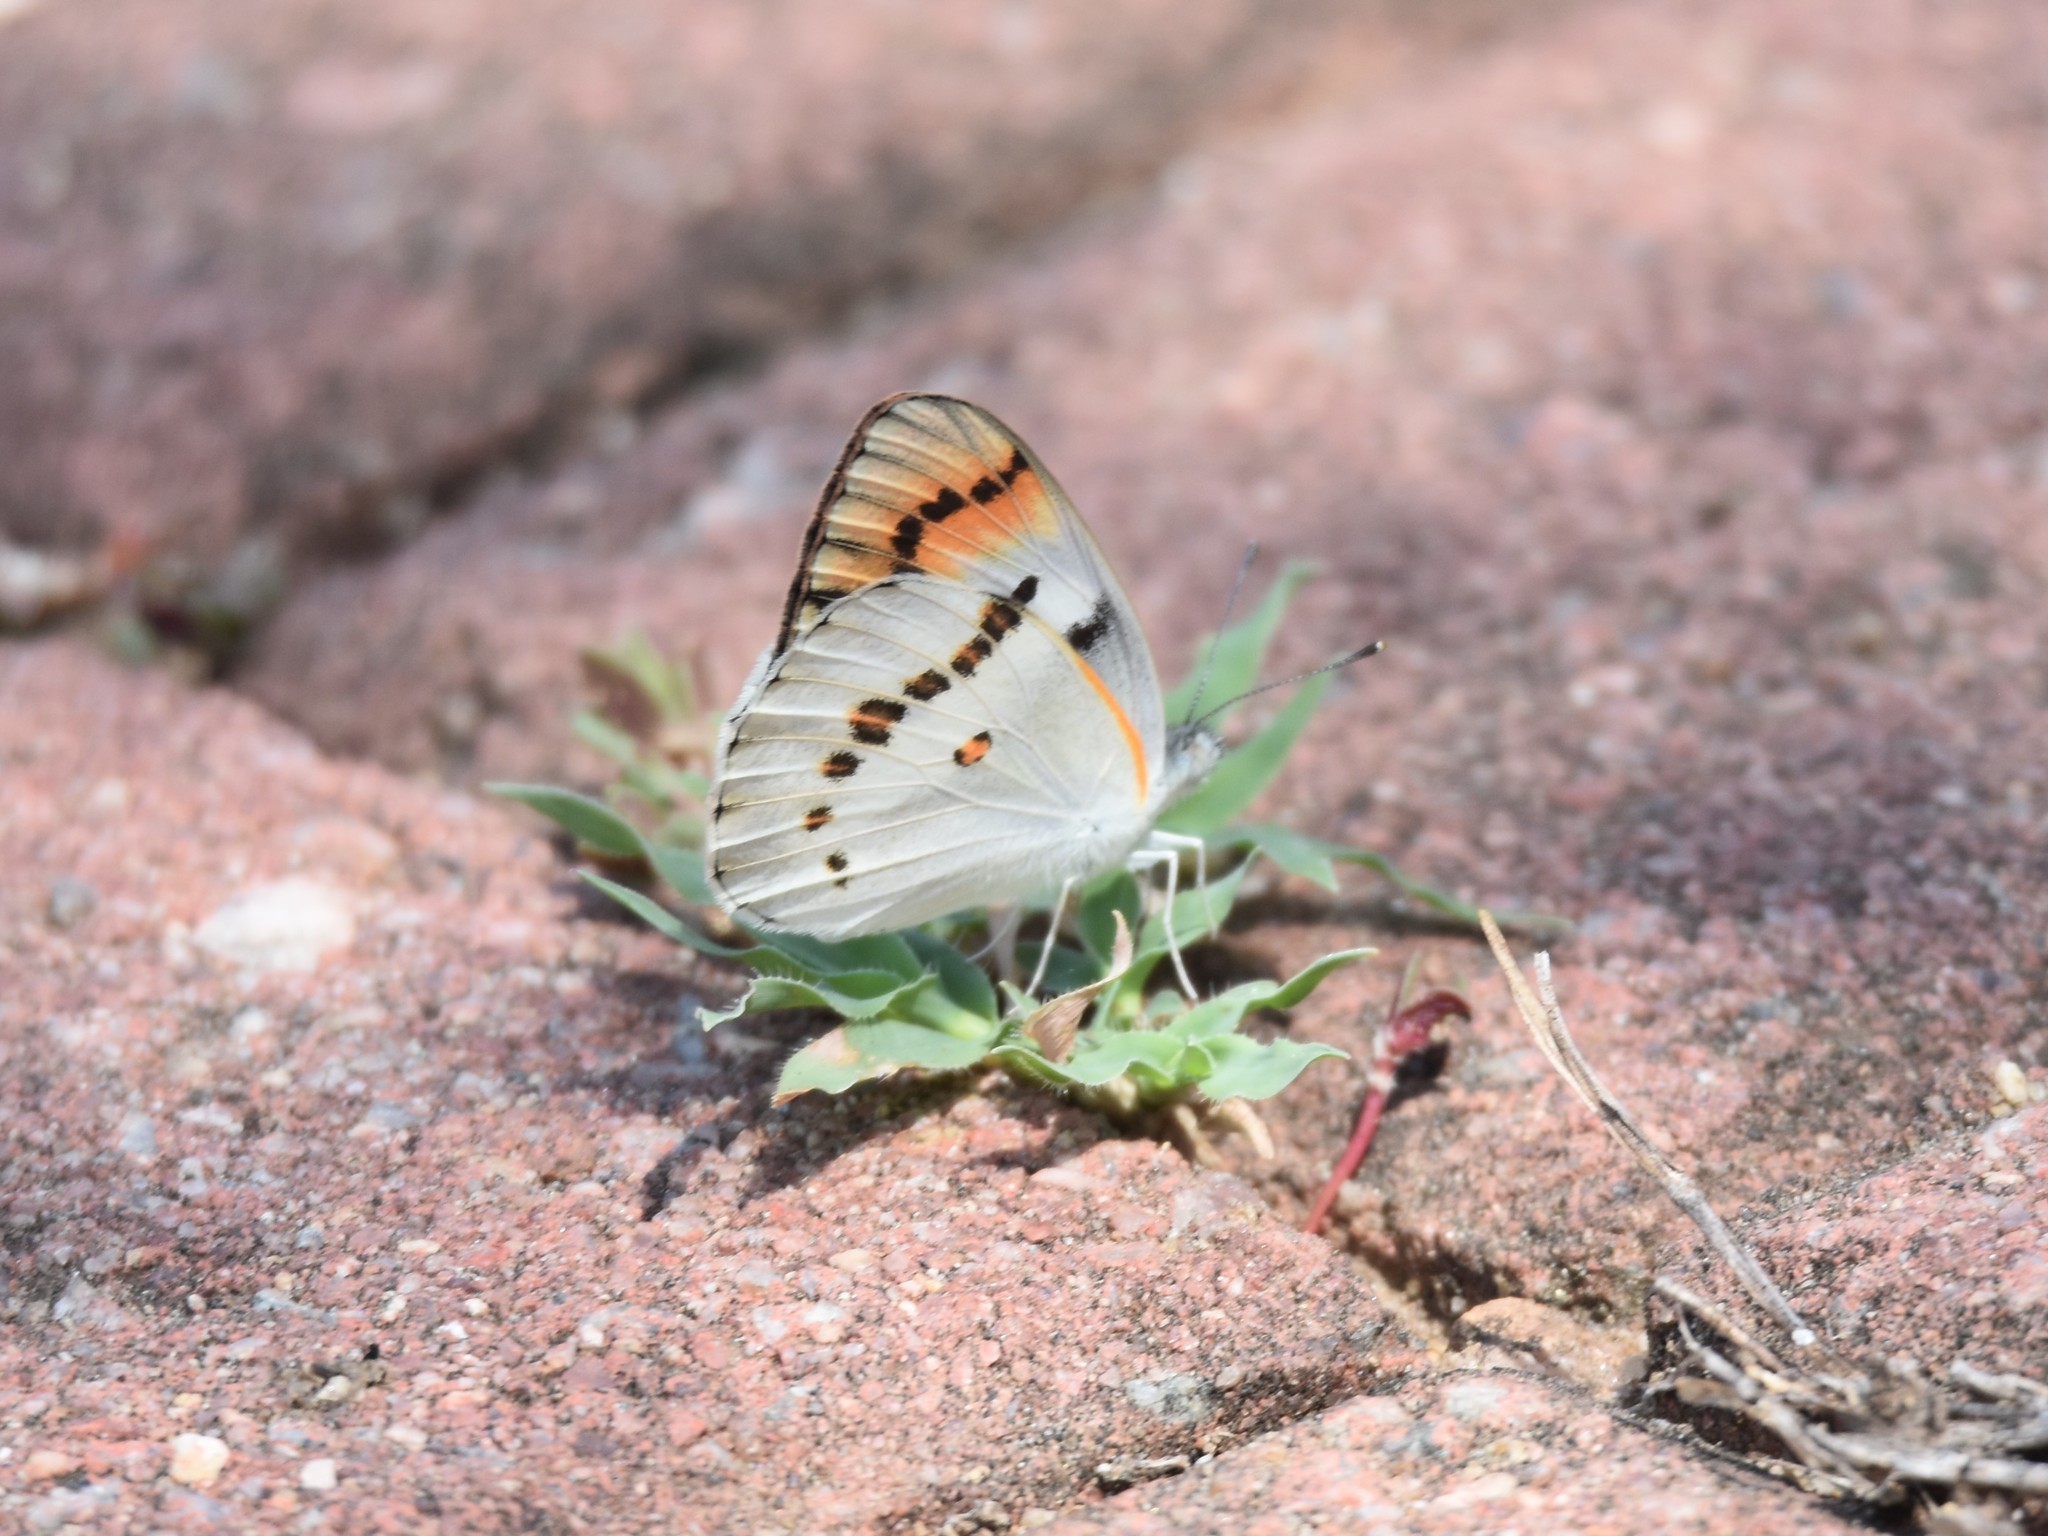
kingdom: Animalia
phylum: Arthropoda
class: Insecta
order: Lepidoptera
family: Pieridae
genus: Colotis
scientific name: Colotis annae
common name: Scarlet tip
